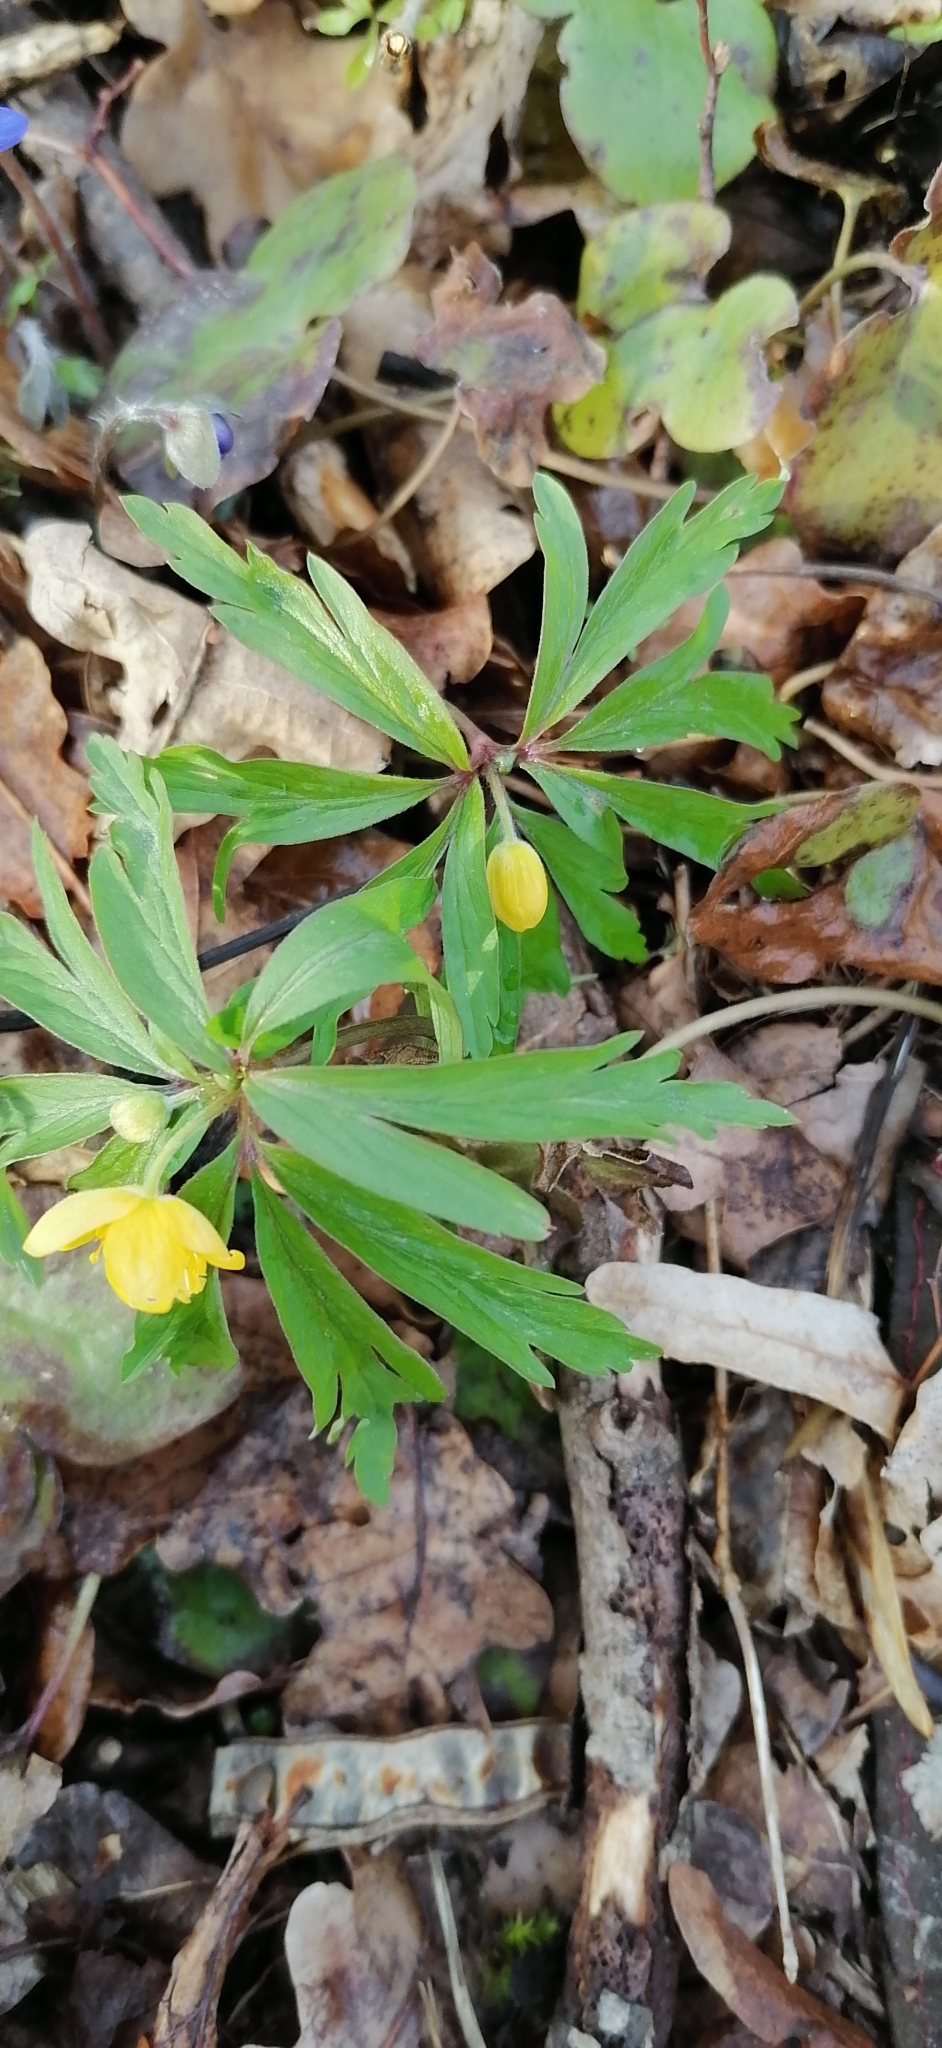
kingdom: Plantae
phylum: Tracheophyta
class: Magnoliopsida
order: Ranunculales
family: Ranunculaceae
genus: Anemone
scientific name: Anemone ranunculoides
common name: Yellow anemone
